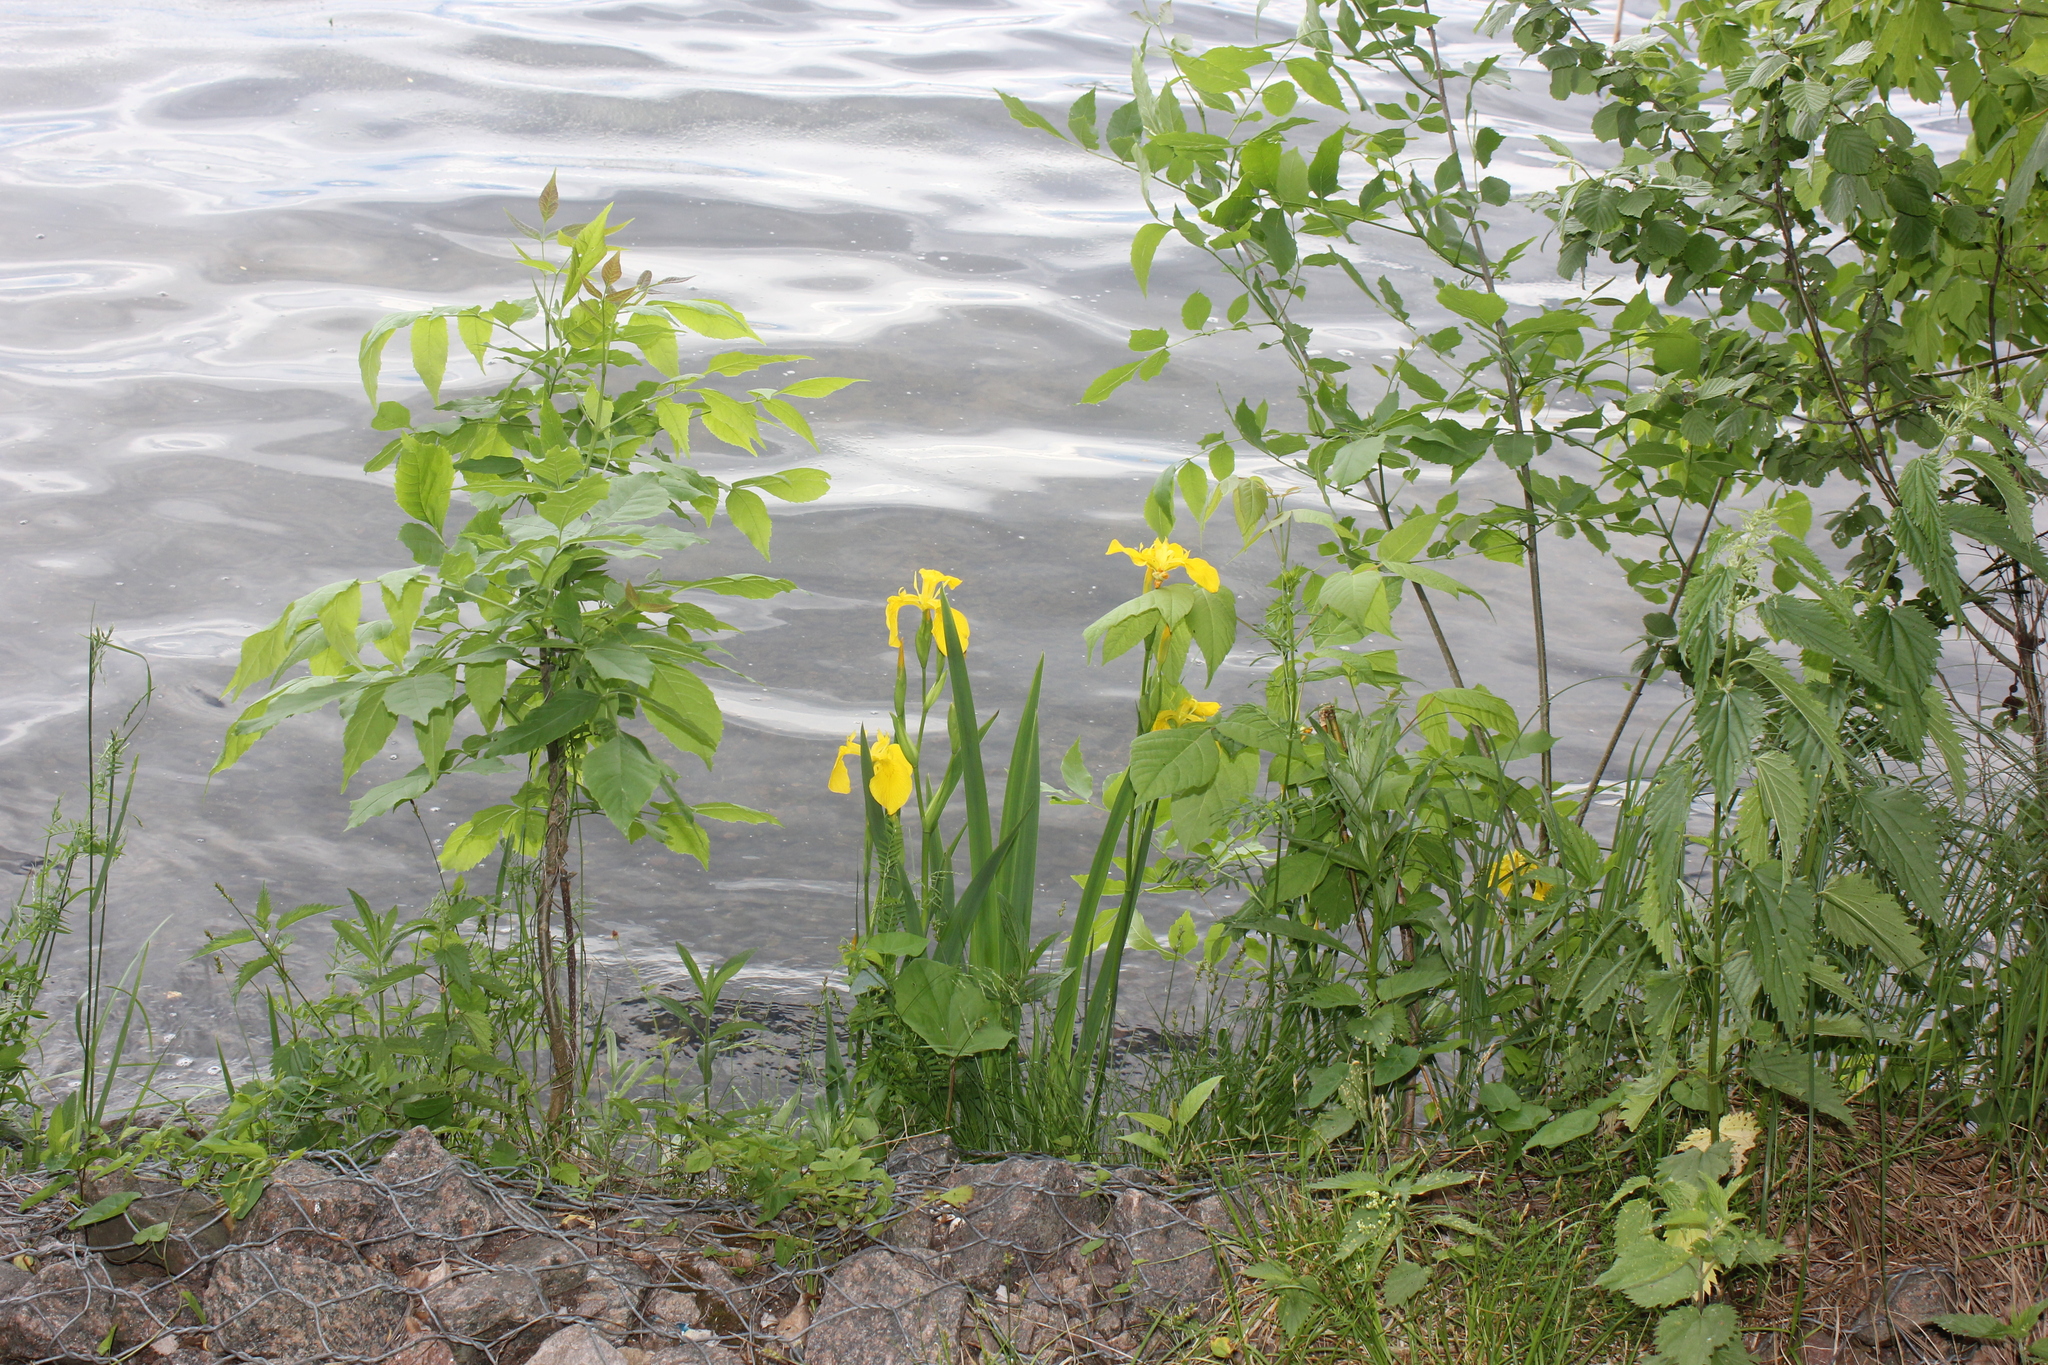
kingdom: Plantae
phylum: Tracheophyta
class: Liliopsida
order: Asparagales
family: Iridaceae
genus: Iris
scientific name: Iris pseudacorus
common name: Yellow flag
